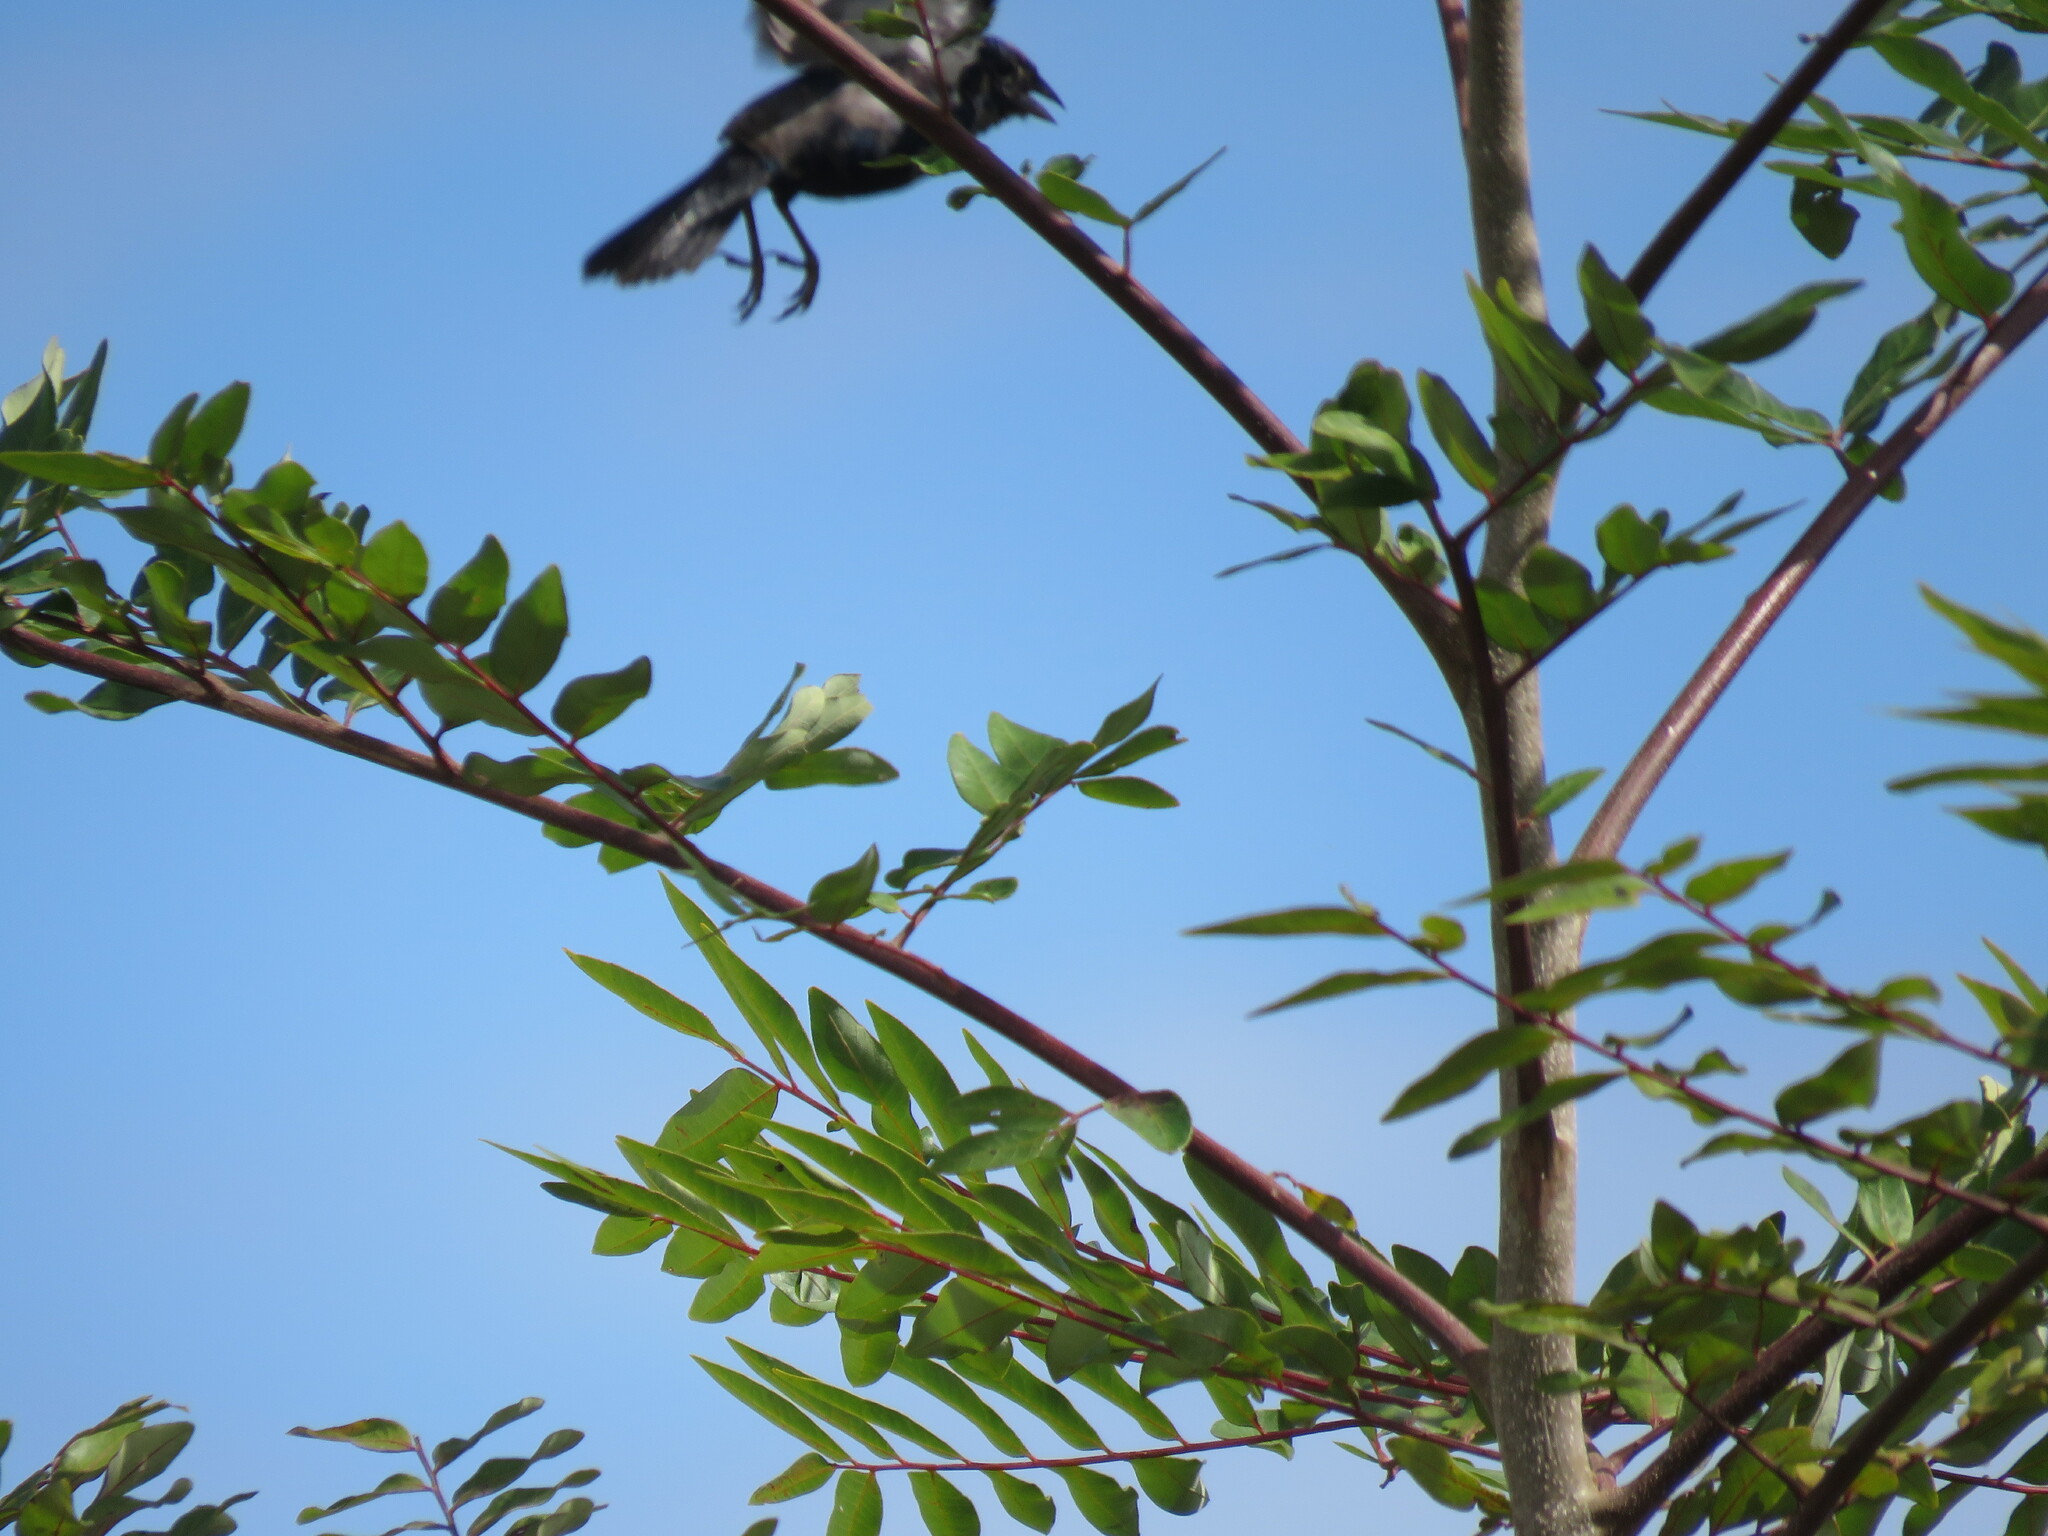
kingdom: Animalia
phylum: Chordata
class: Aves
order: Passeriformes
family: Thraupidae
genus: Volatinia
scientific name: Volatinia jacarina
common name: Blue-black grassquit
